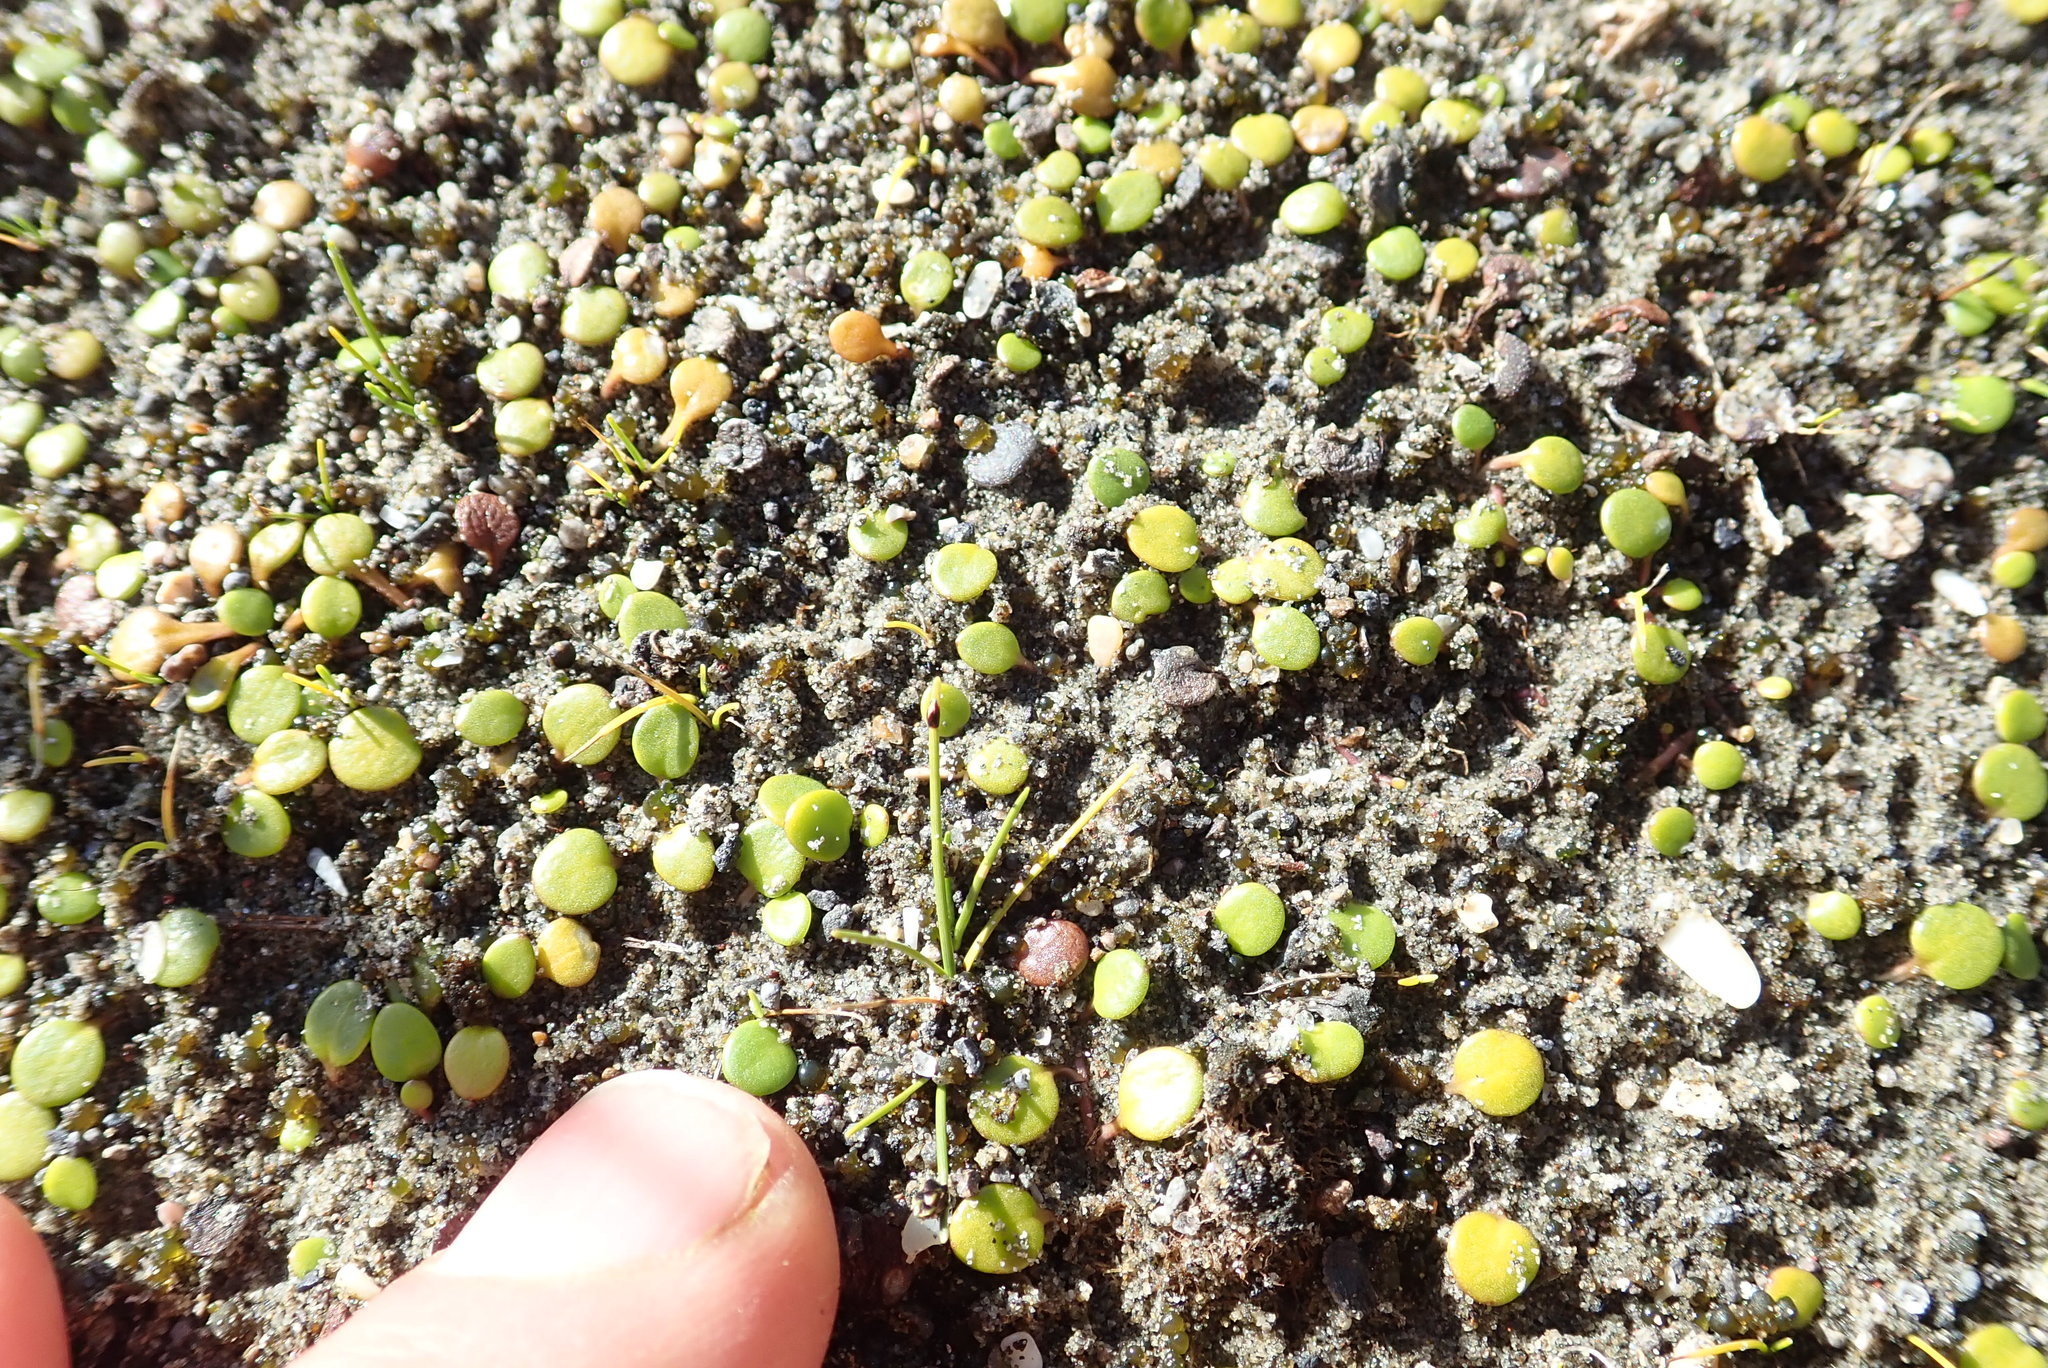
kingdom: Plantae
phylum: Tracheophyta
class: Magnoliopsida
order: Asterales
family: Goodeniaceae
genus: Goodenia
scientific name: Goodenia heenanii
